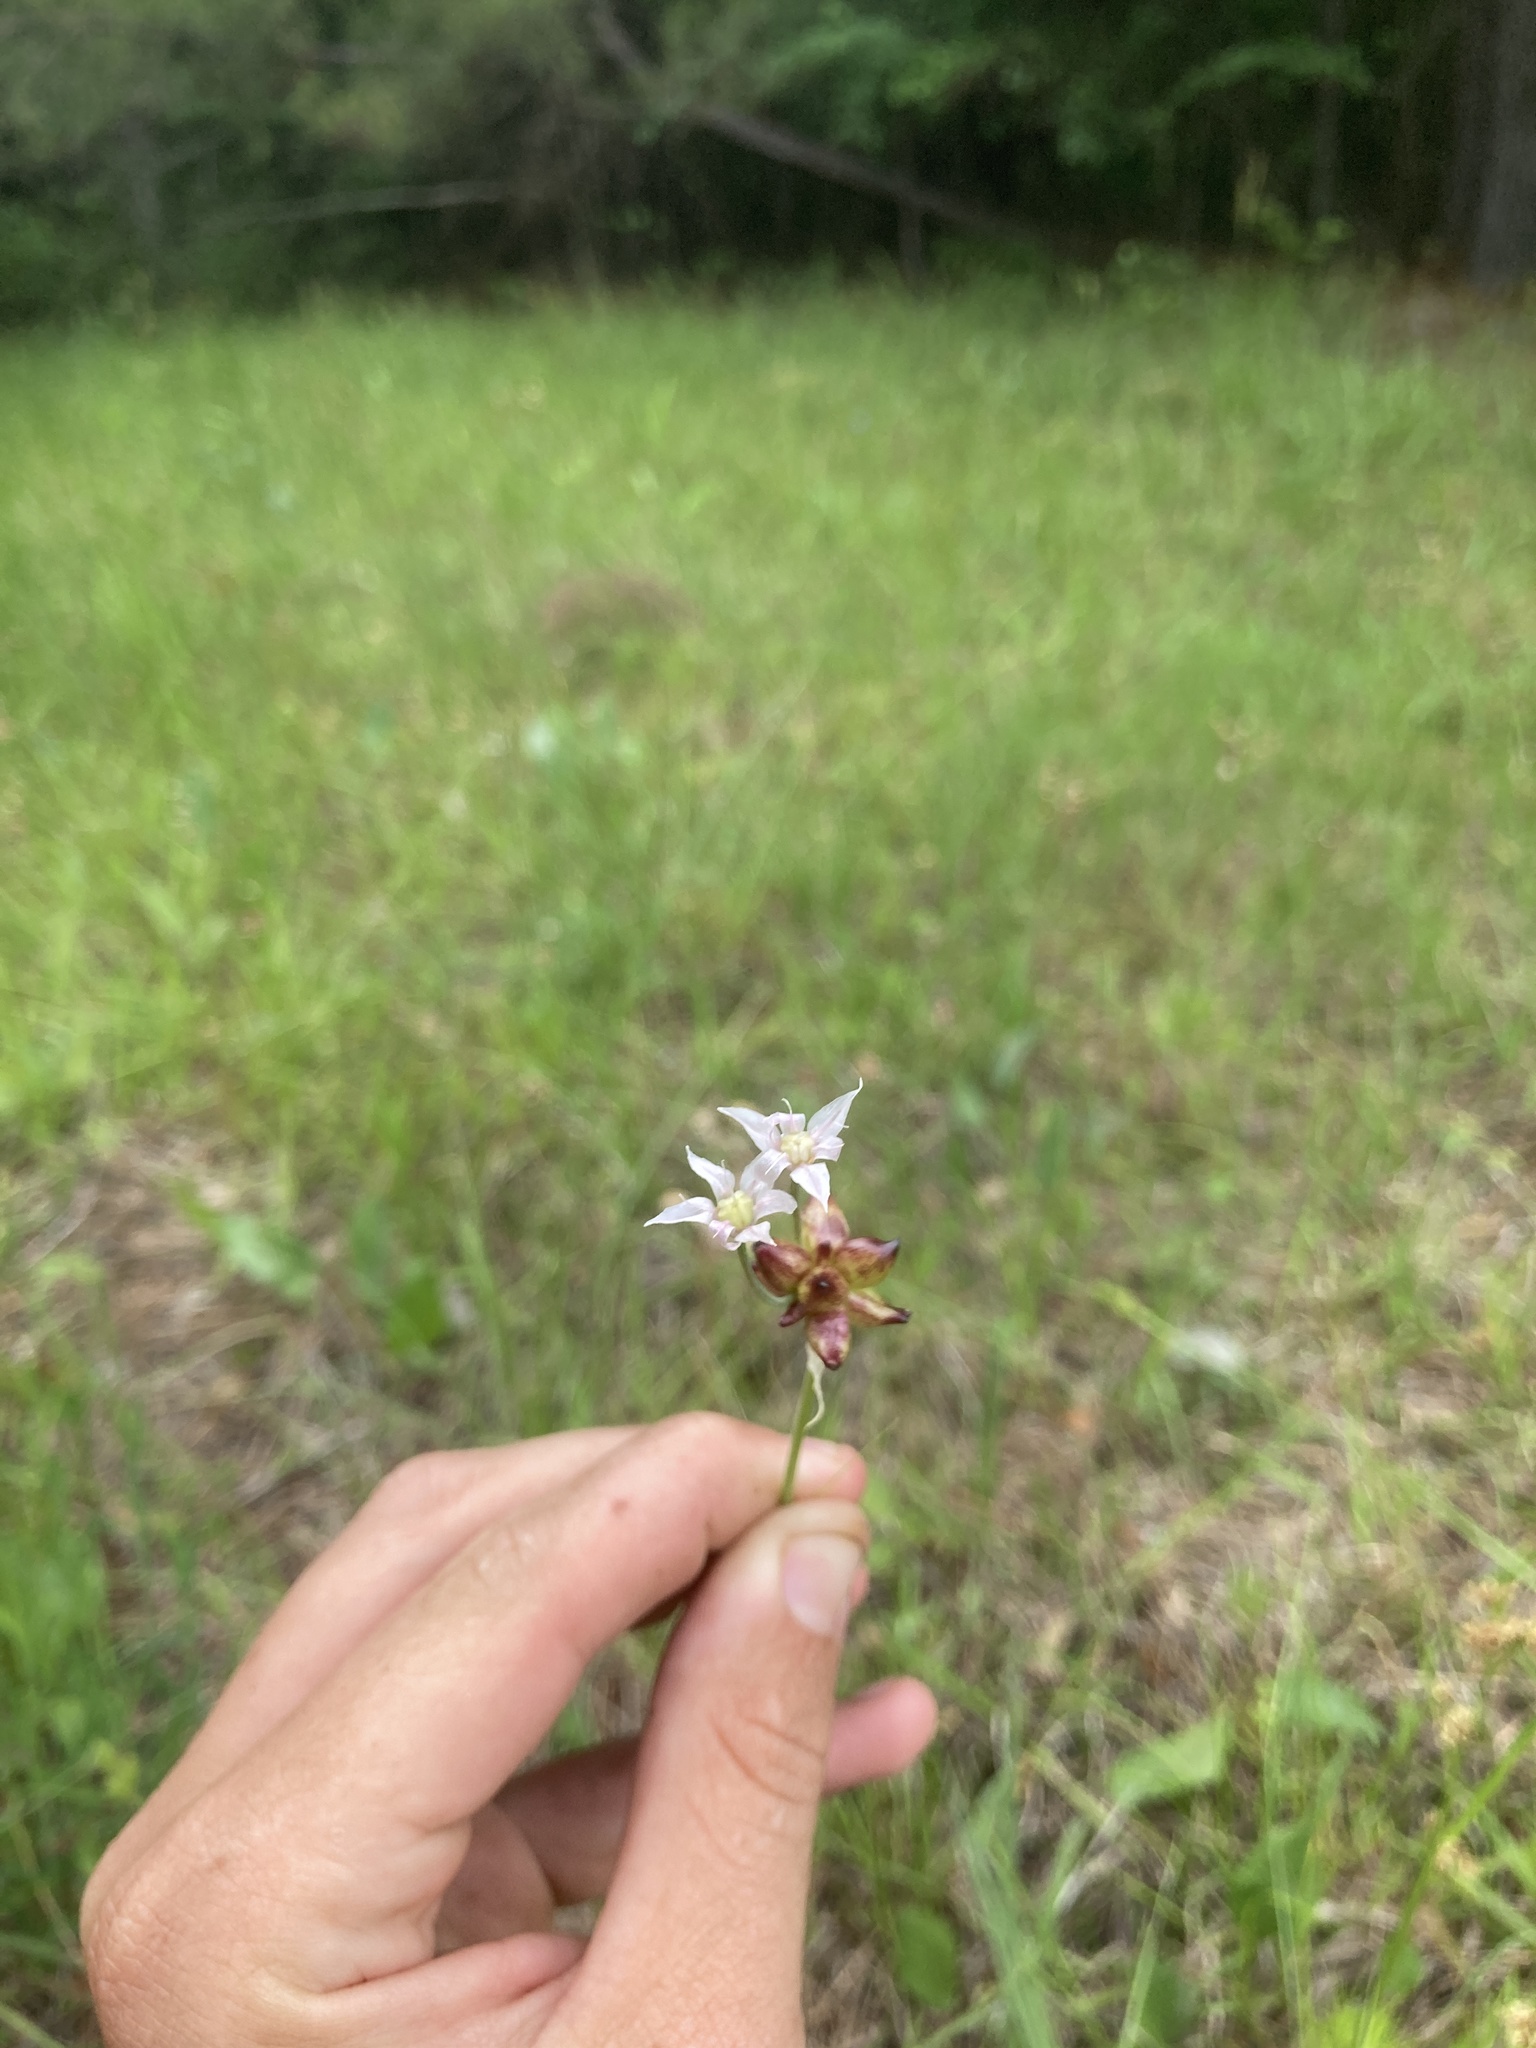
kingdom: Plantae
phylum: Tracheophyta
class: Liliopsida
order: Asparagales
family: Amaryllidaceae
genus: Allium
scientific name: Allium canadense
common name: Meadow garlic
